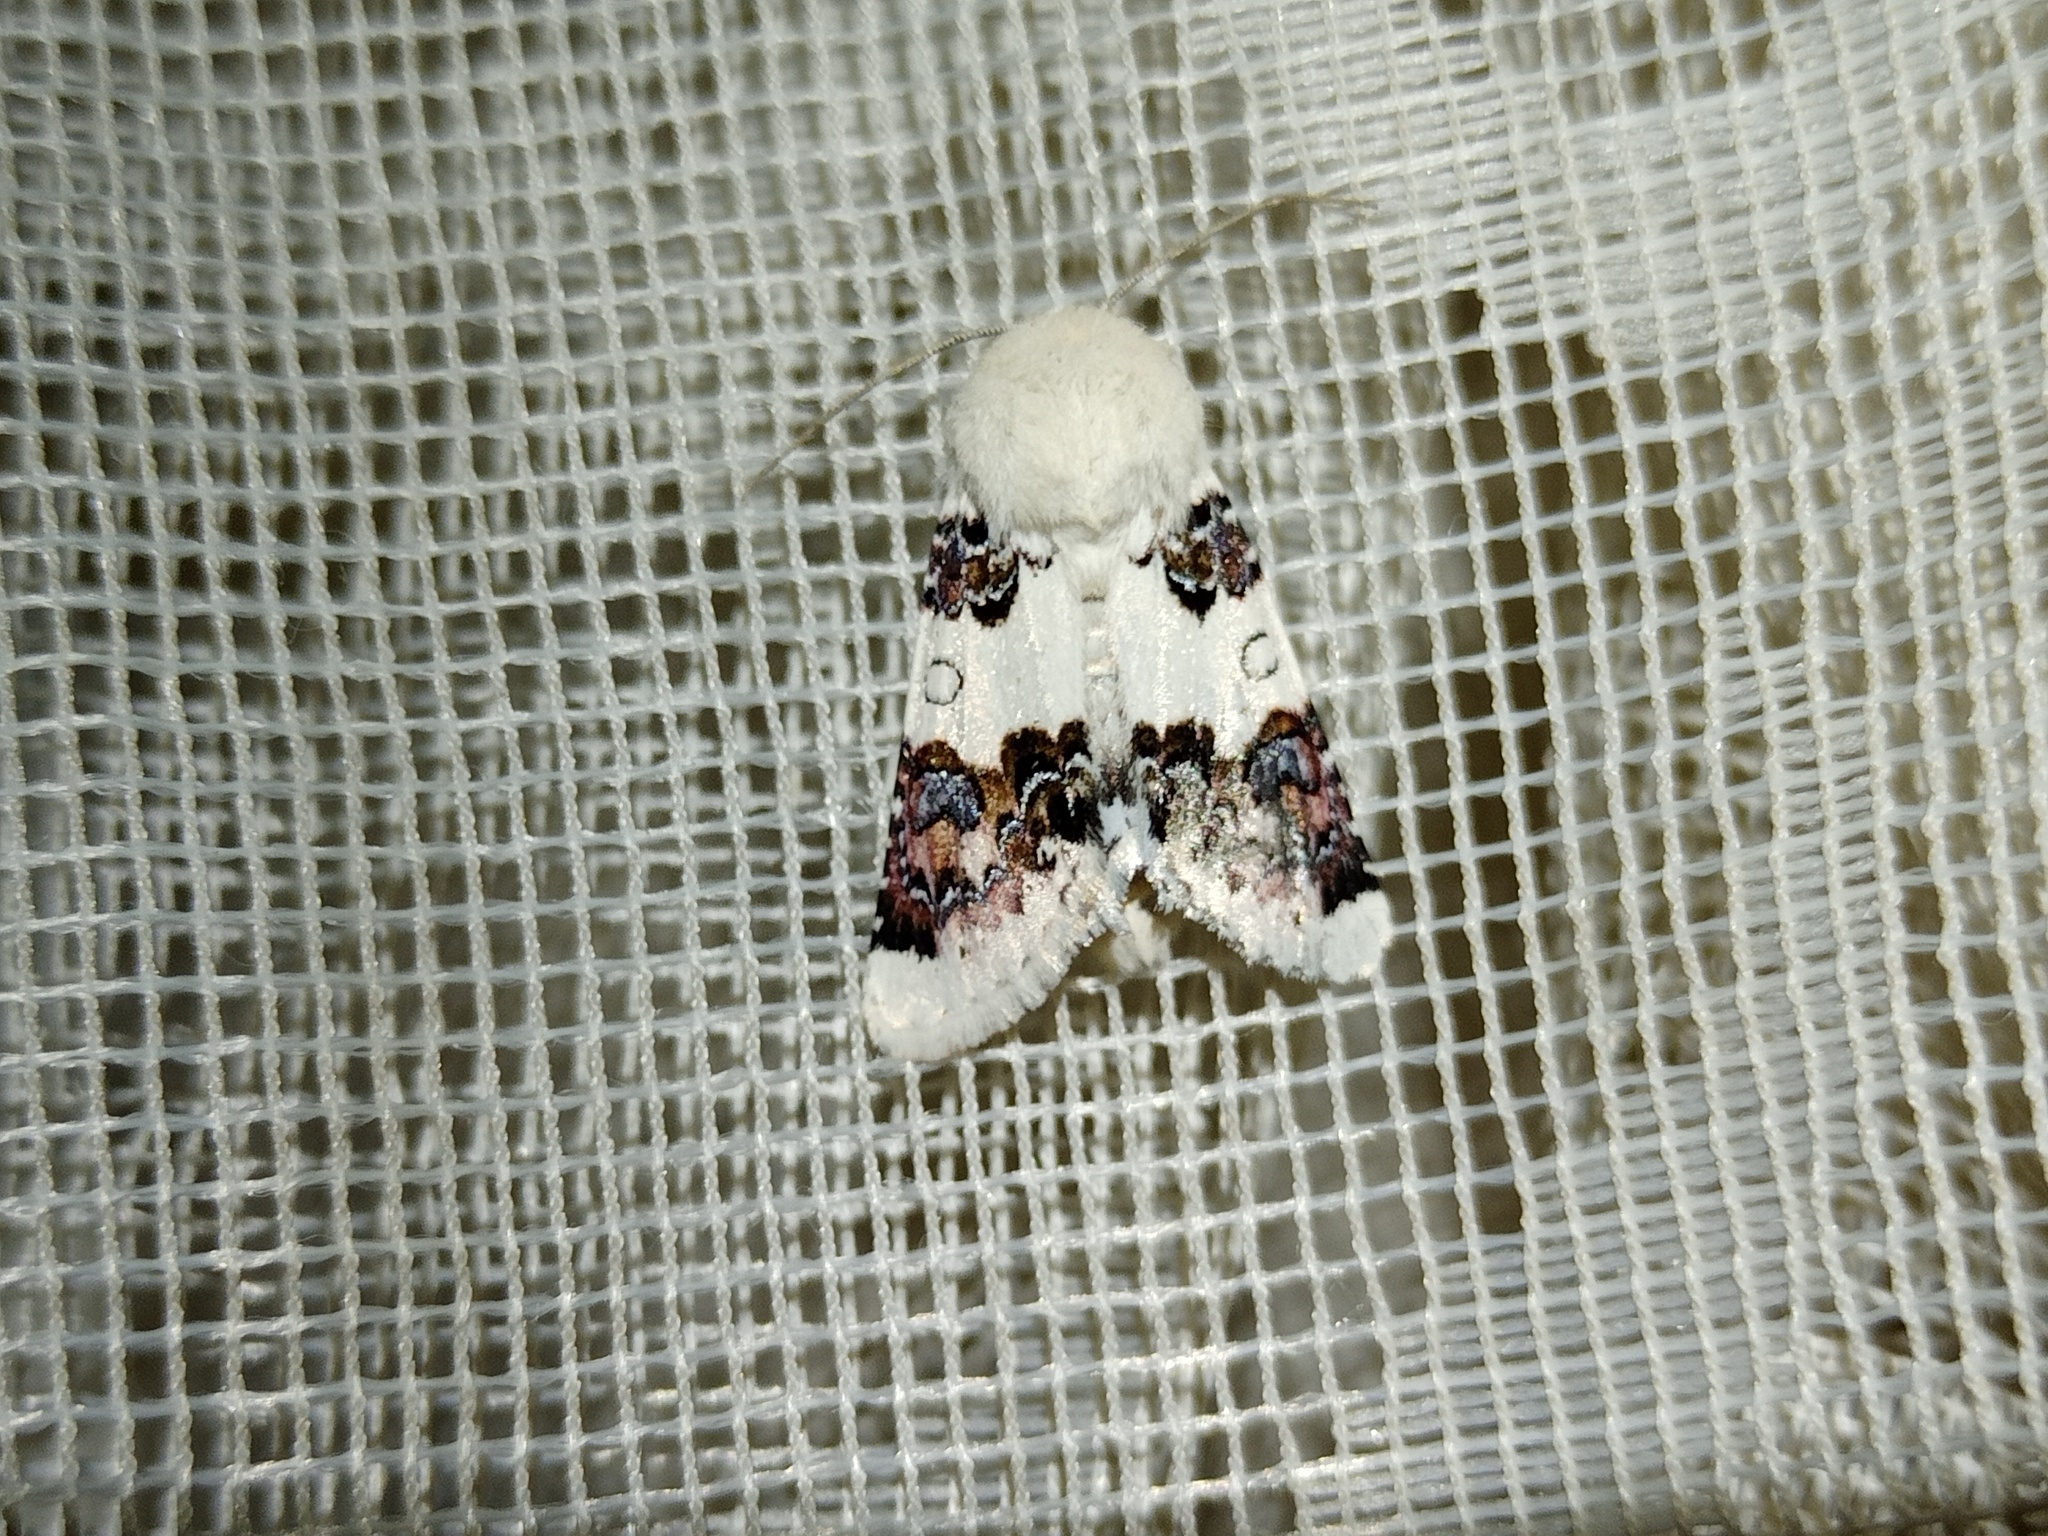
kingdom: Animalia
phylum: Arthropoda
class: Insecta
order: Lepidoptera
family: Noctuidae
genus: Enterpia
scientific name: Enterpia laudeti
